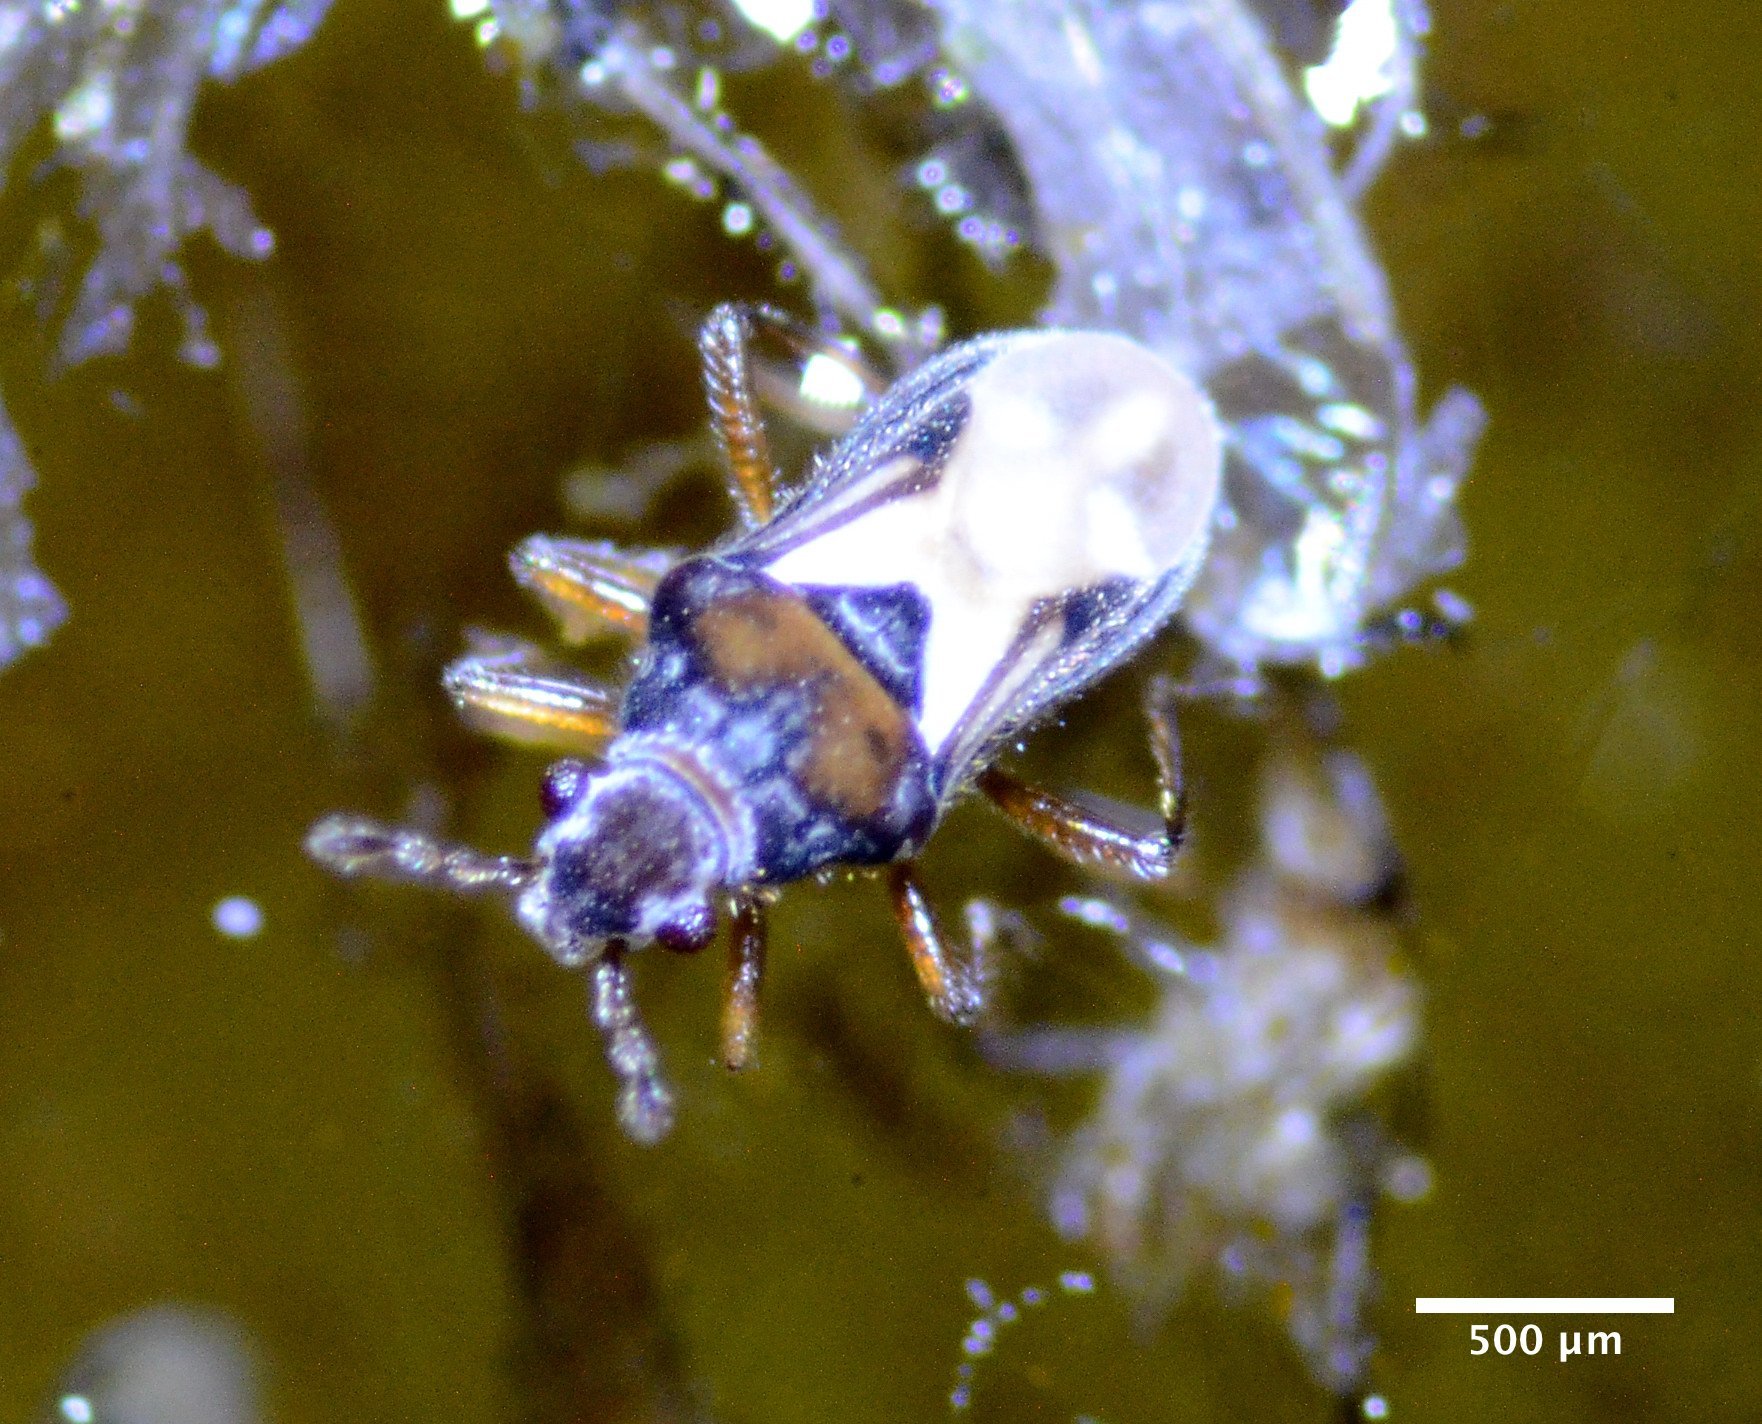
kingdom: Animalia
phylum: Arthropoda
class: Insecta
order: Hemiptera
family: Hebridae
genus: Merragata
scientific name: Merragata hebroides
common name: Velvet water bug
